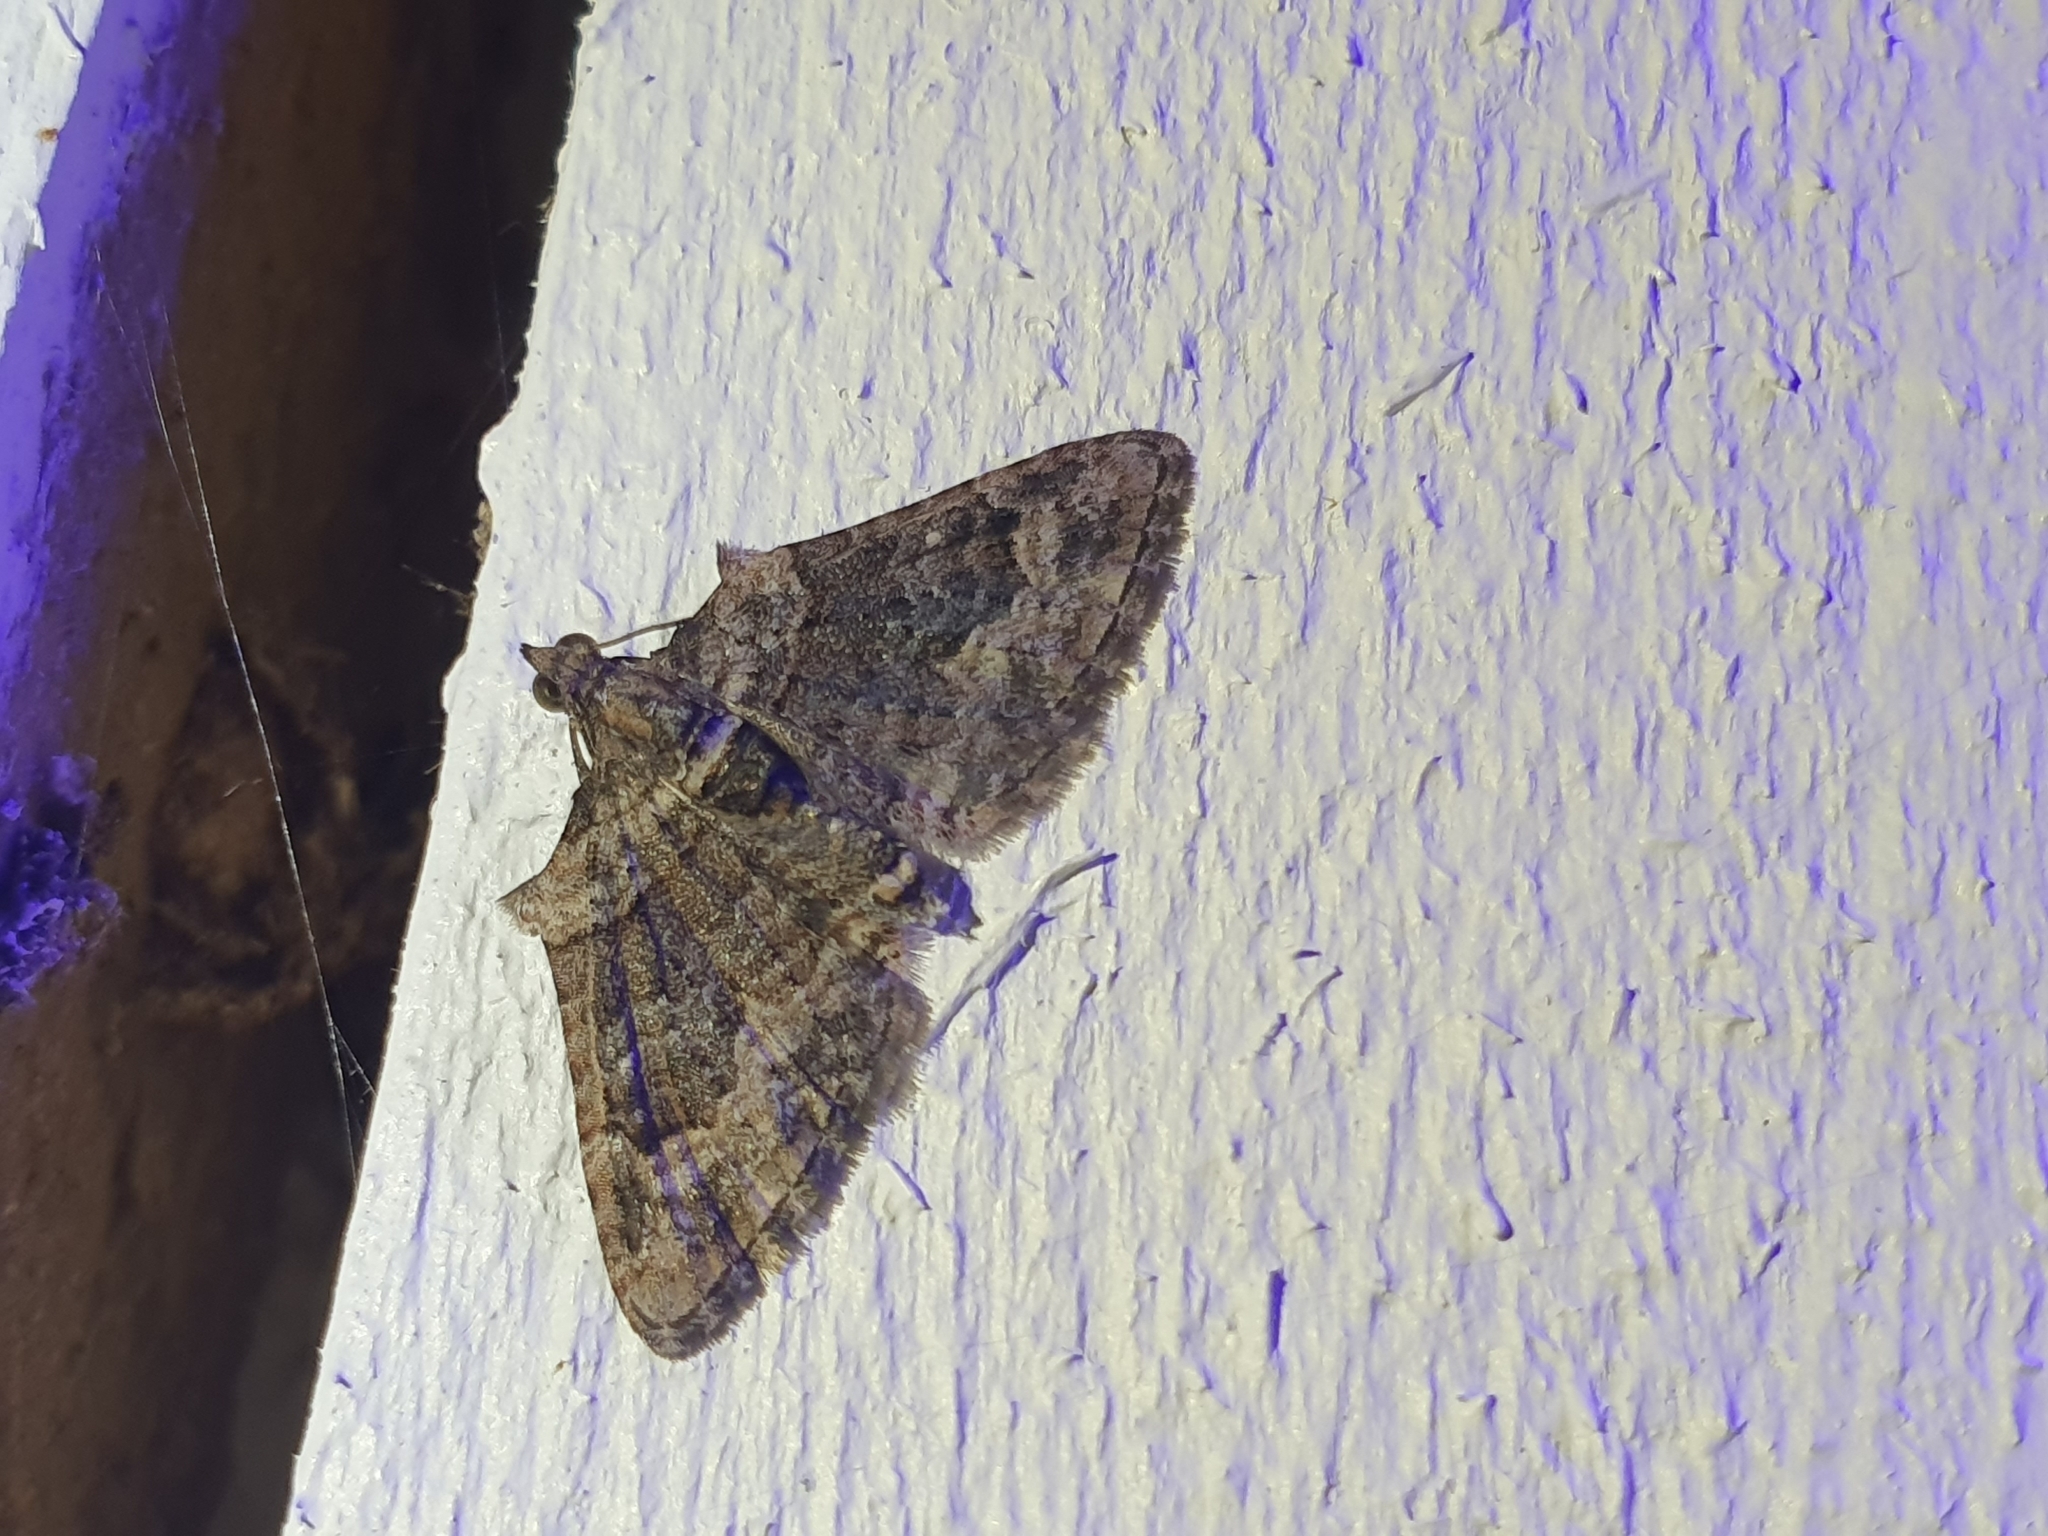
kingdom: Animalia
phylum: Arthropoda
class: Insecta
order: Lepidoptera
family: Geometridae
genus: Phrissogonus
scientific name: Phrissogonus laticostata
